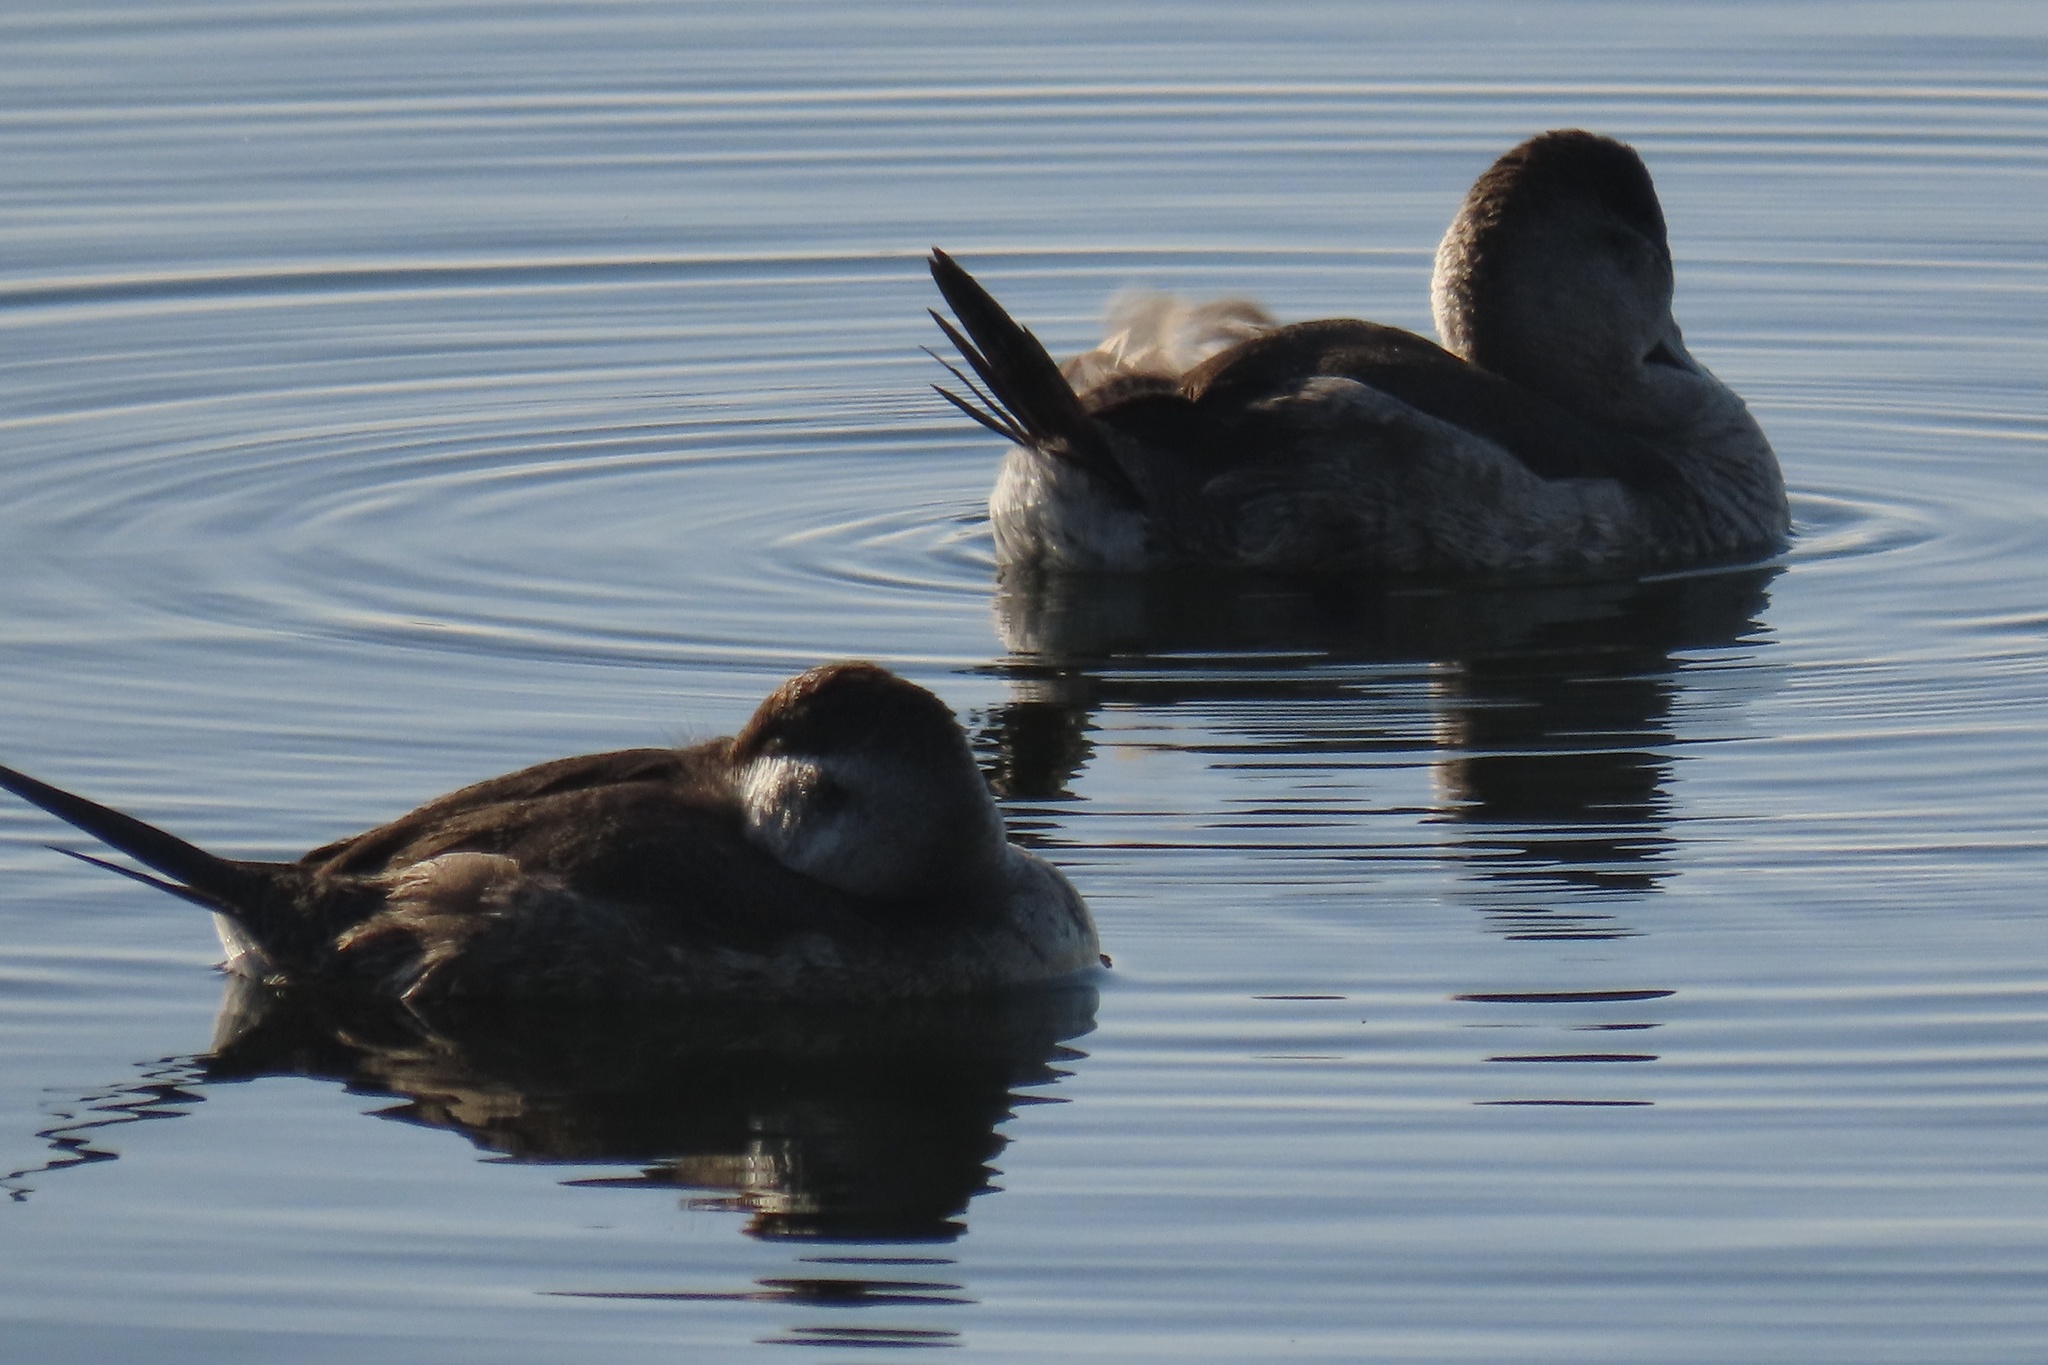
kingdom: Animalia
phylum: Chordata
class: Aves
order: Anseriformes
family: Anatidae
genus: Oxyura
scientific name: Oxyura jamaicensis
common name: Ruddy duck
